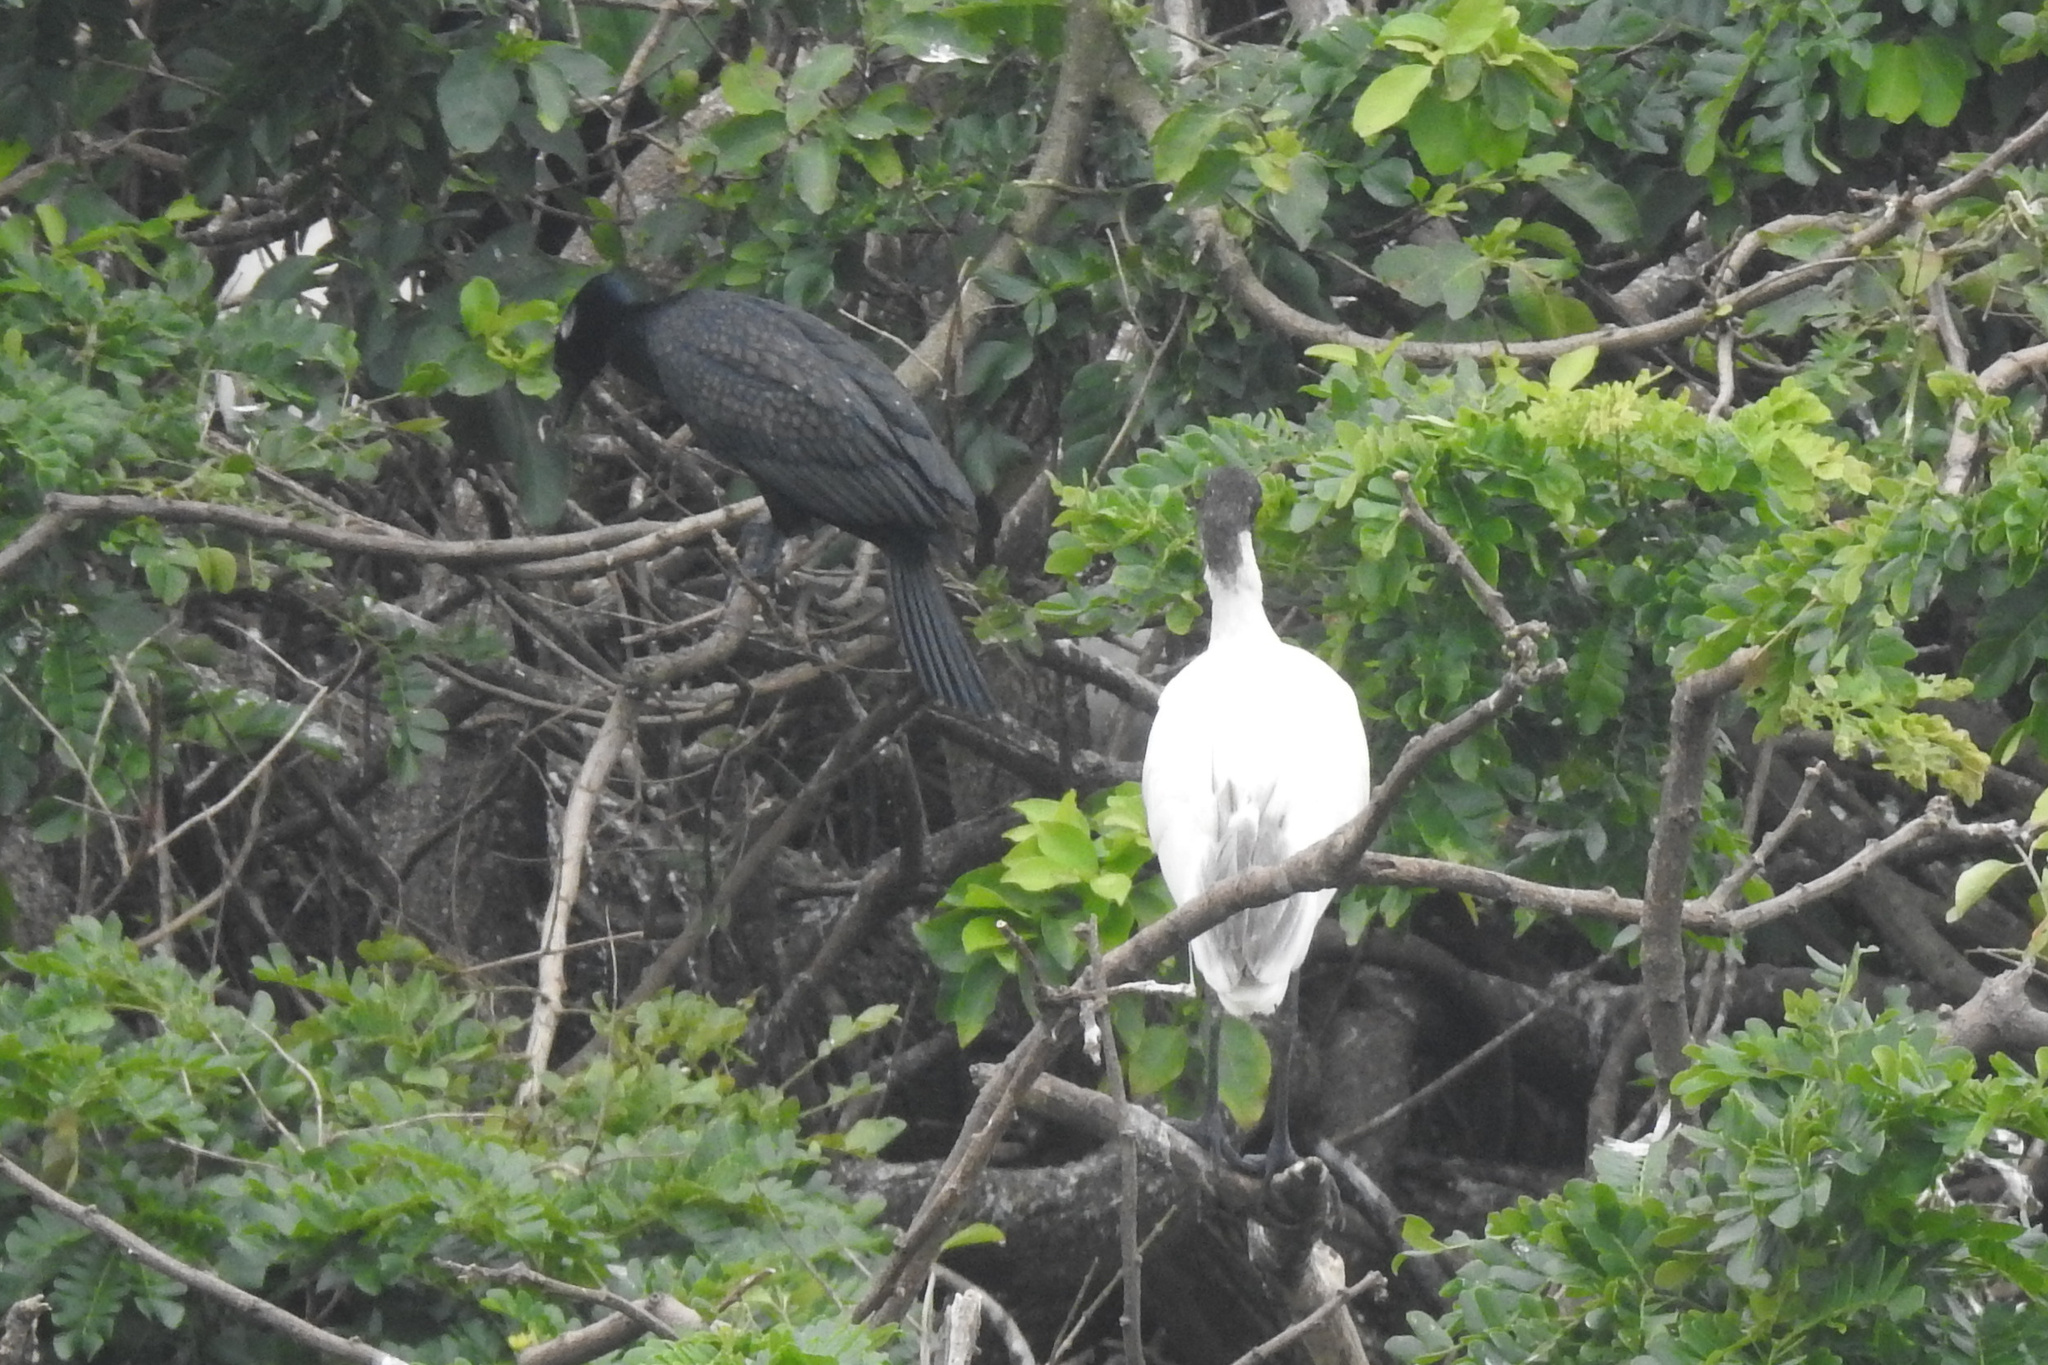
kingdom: Animalia
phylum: Chordata
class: Aves
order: Pelecaniformes
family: Threskiornithidae
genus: Threskiornis
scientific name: Threskiornis melanocephalus
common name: Black-headed ibis
